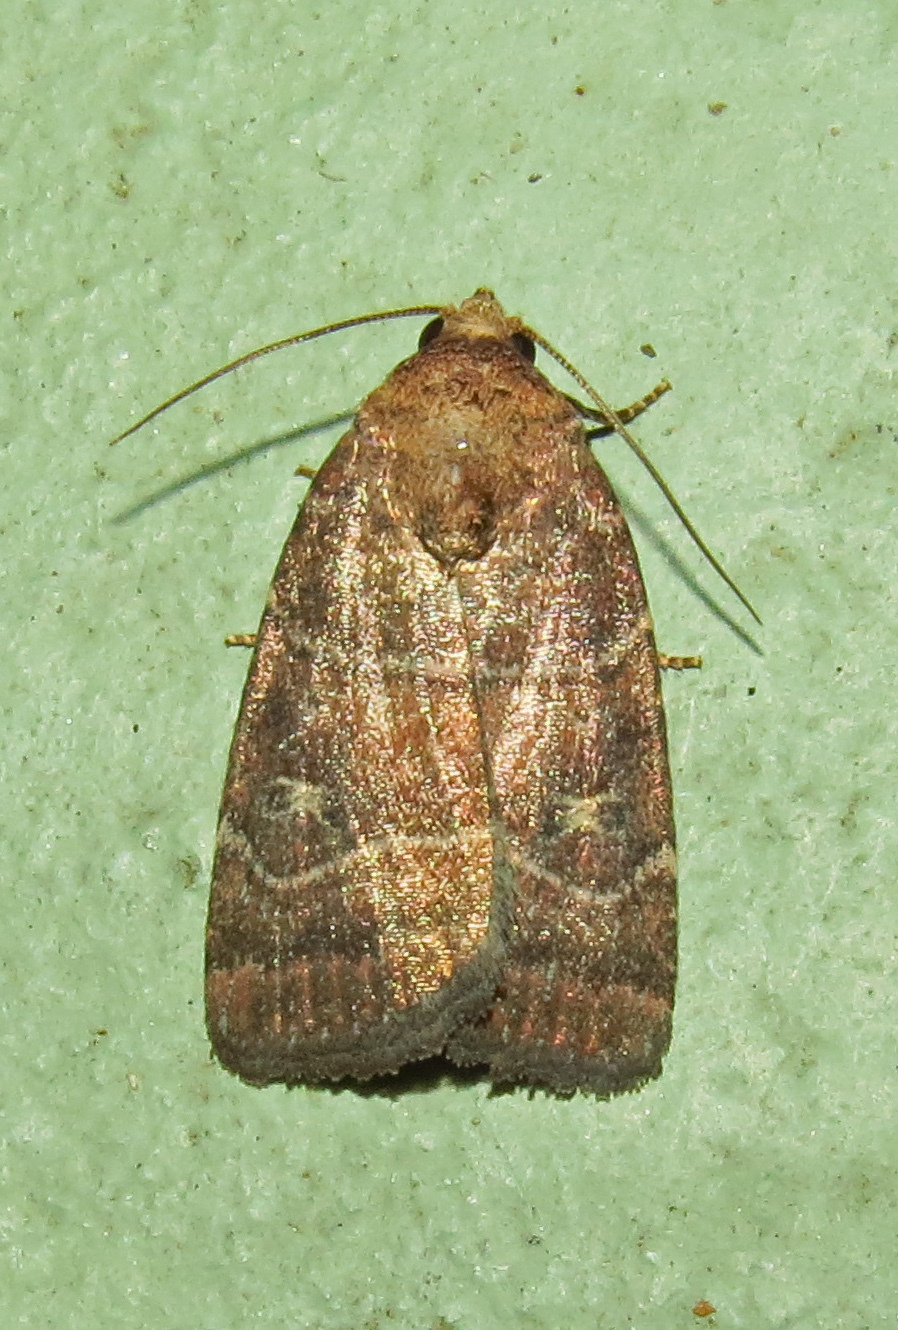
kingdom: Animalia
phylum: Arthropoda
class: Insecta
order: Lepidoptera
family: Noctuidae
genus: Elaphria
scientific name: Elaphria grata
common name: Grateful midget moth
